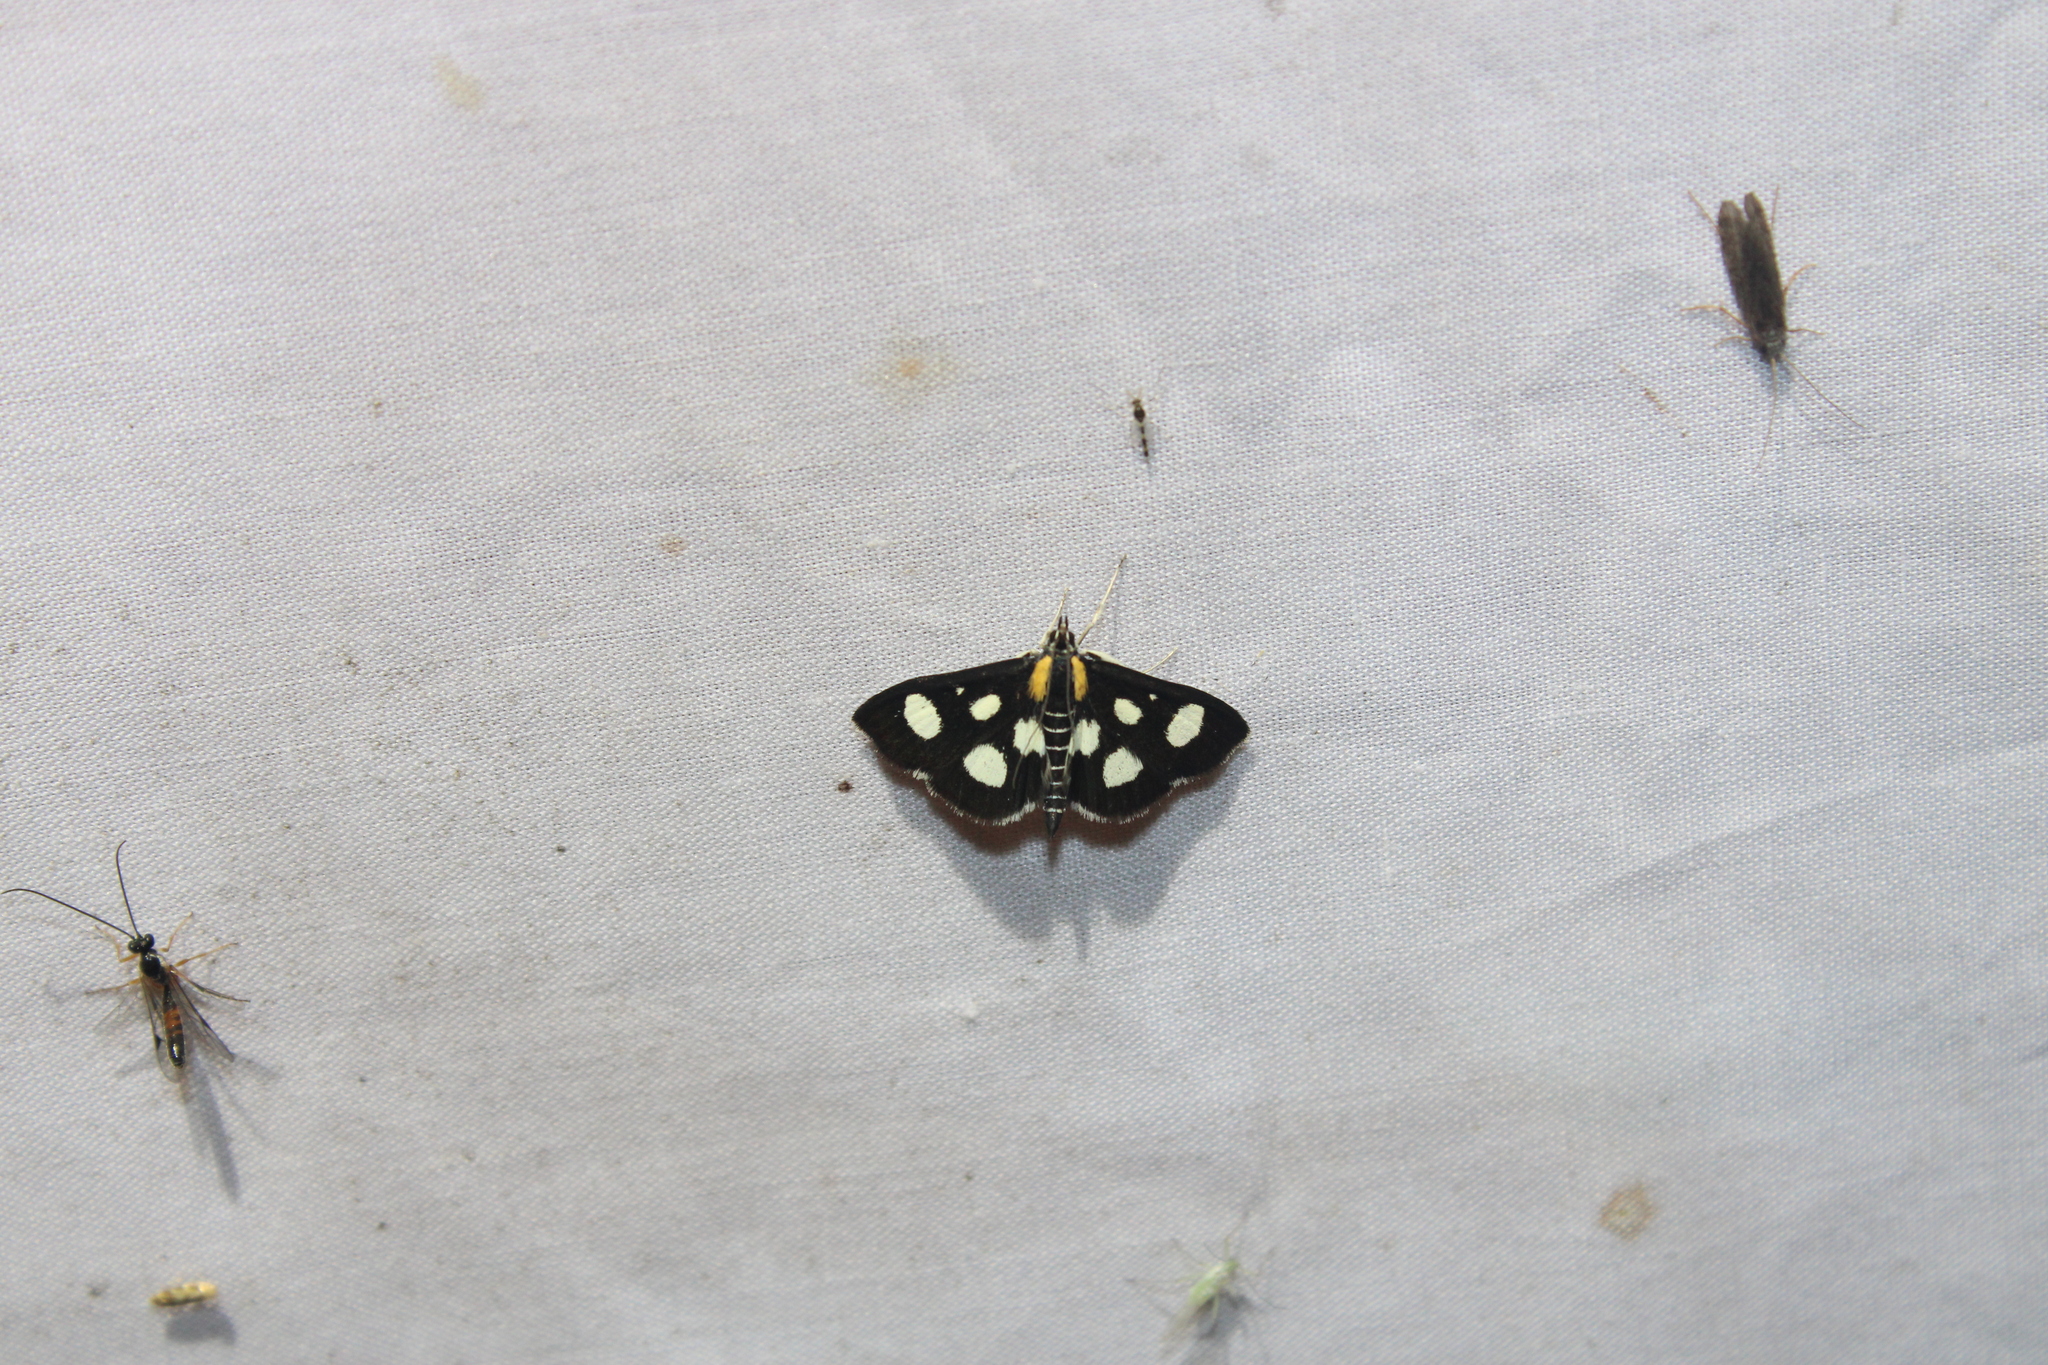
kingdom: Animalia
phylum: Arthropoda
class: Insecta
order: Lepidoptera
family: Crambidae
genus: Anania
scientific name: Anania funebris
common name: White-spotted sable moth
